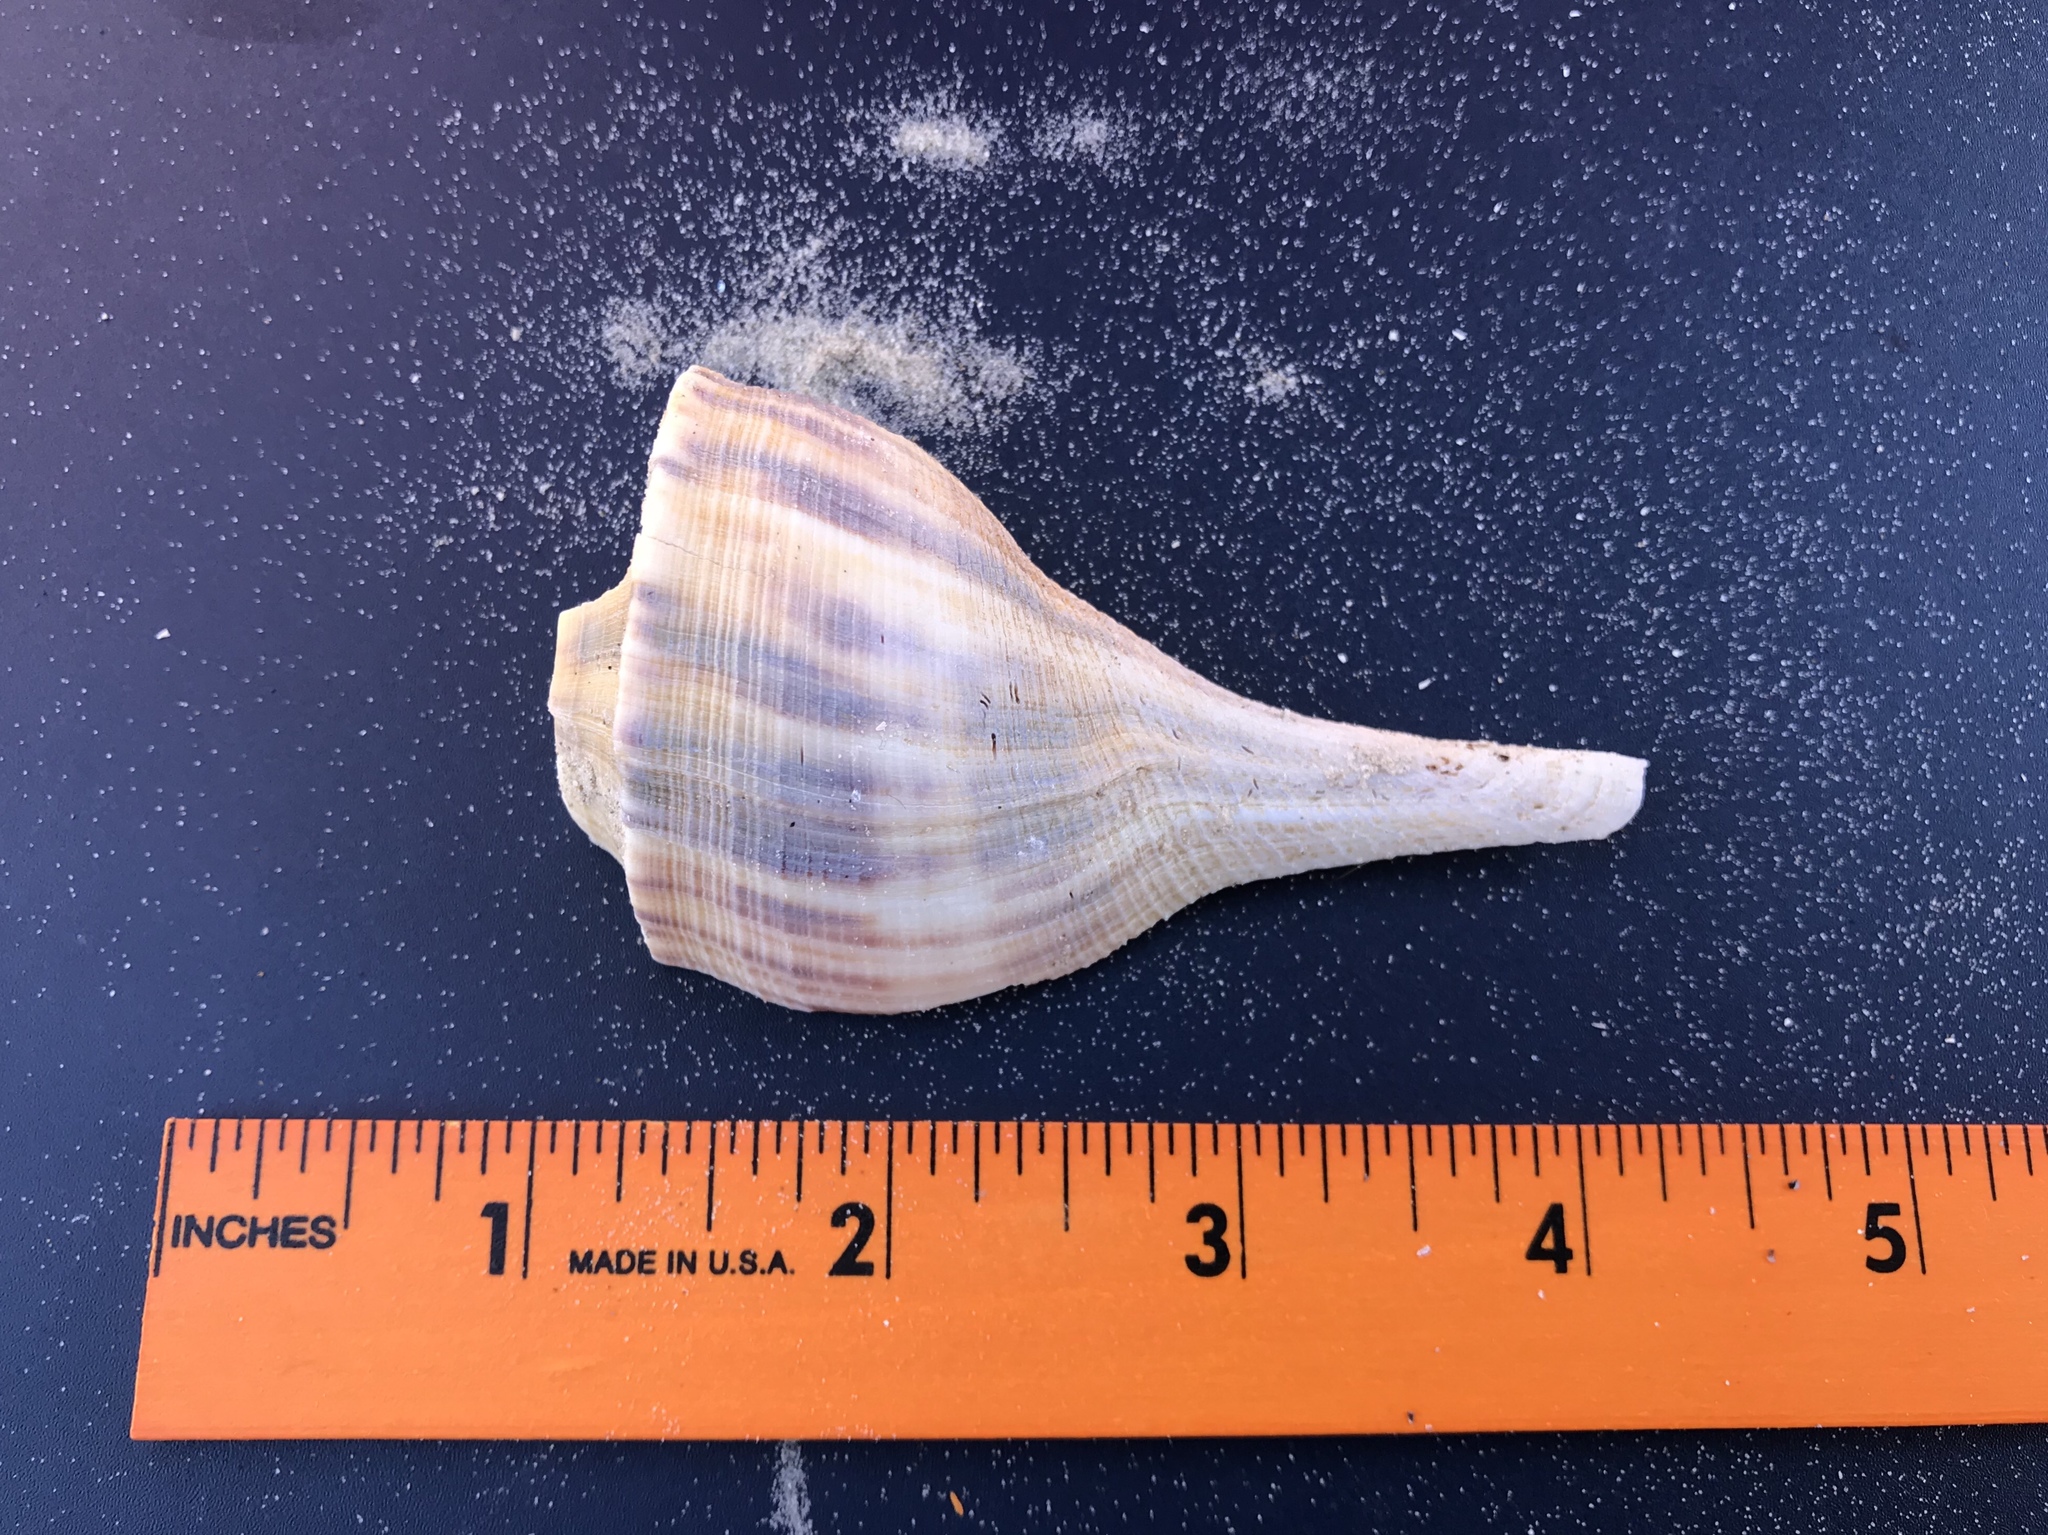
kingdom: Animalia
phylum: Mollusca
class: Gastropoda
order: Neogastropoda
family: Busyconidae
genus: Fulguropsis
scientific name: Fulguropsis plagosa
